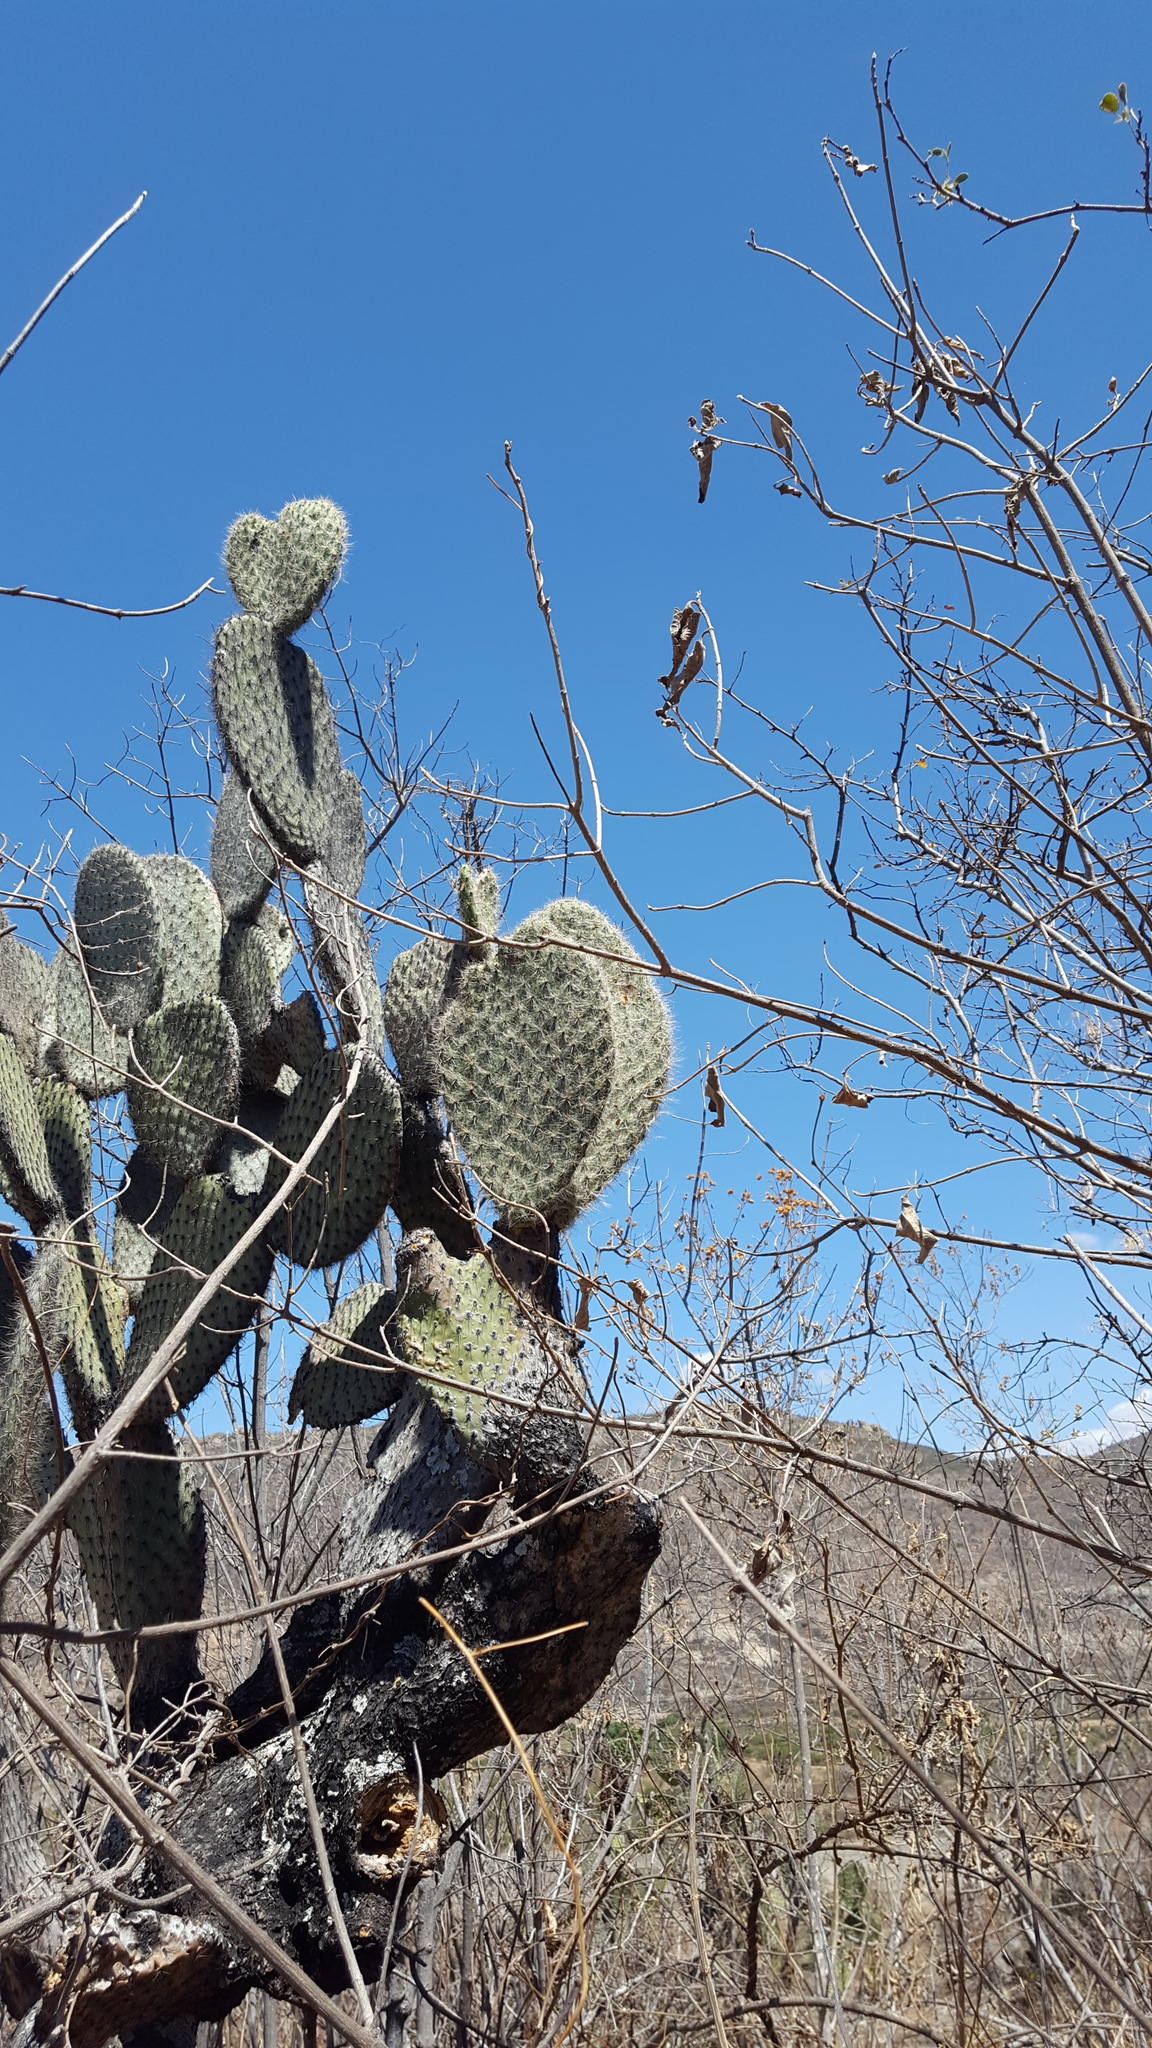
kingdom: Plantae
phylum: Tracheophyta
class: Magnoliopsida
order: Caryophyllales
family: Cactaceae
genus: Opuntia
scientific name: Opuntia pilifera
